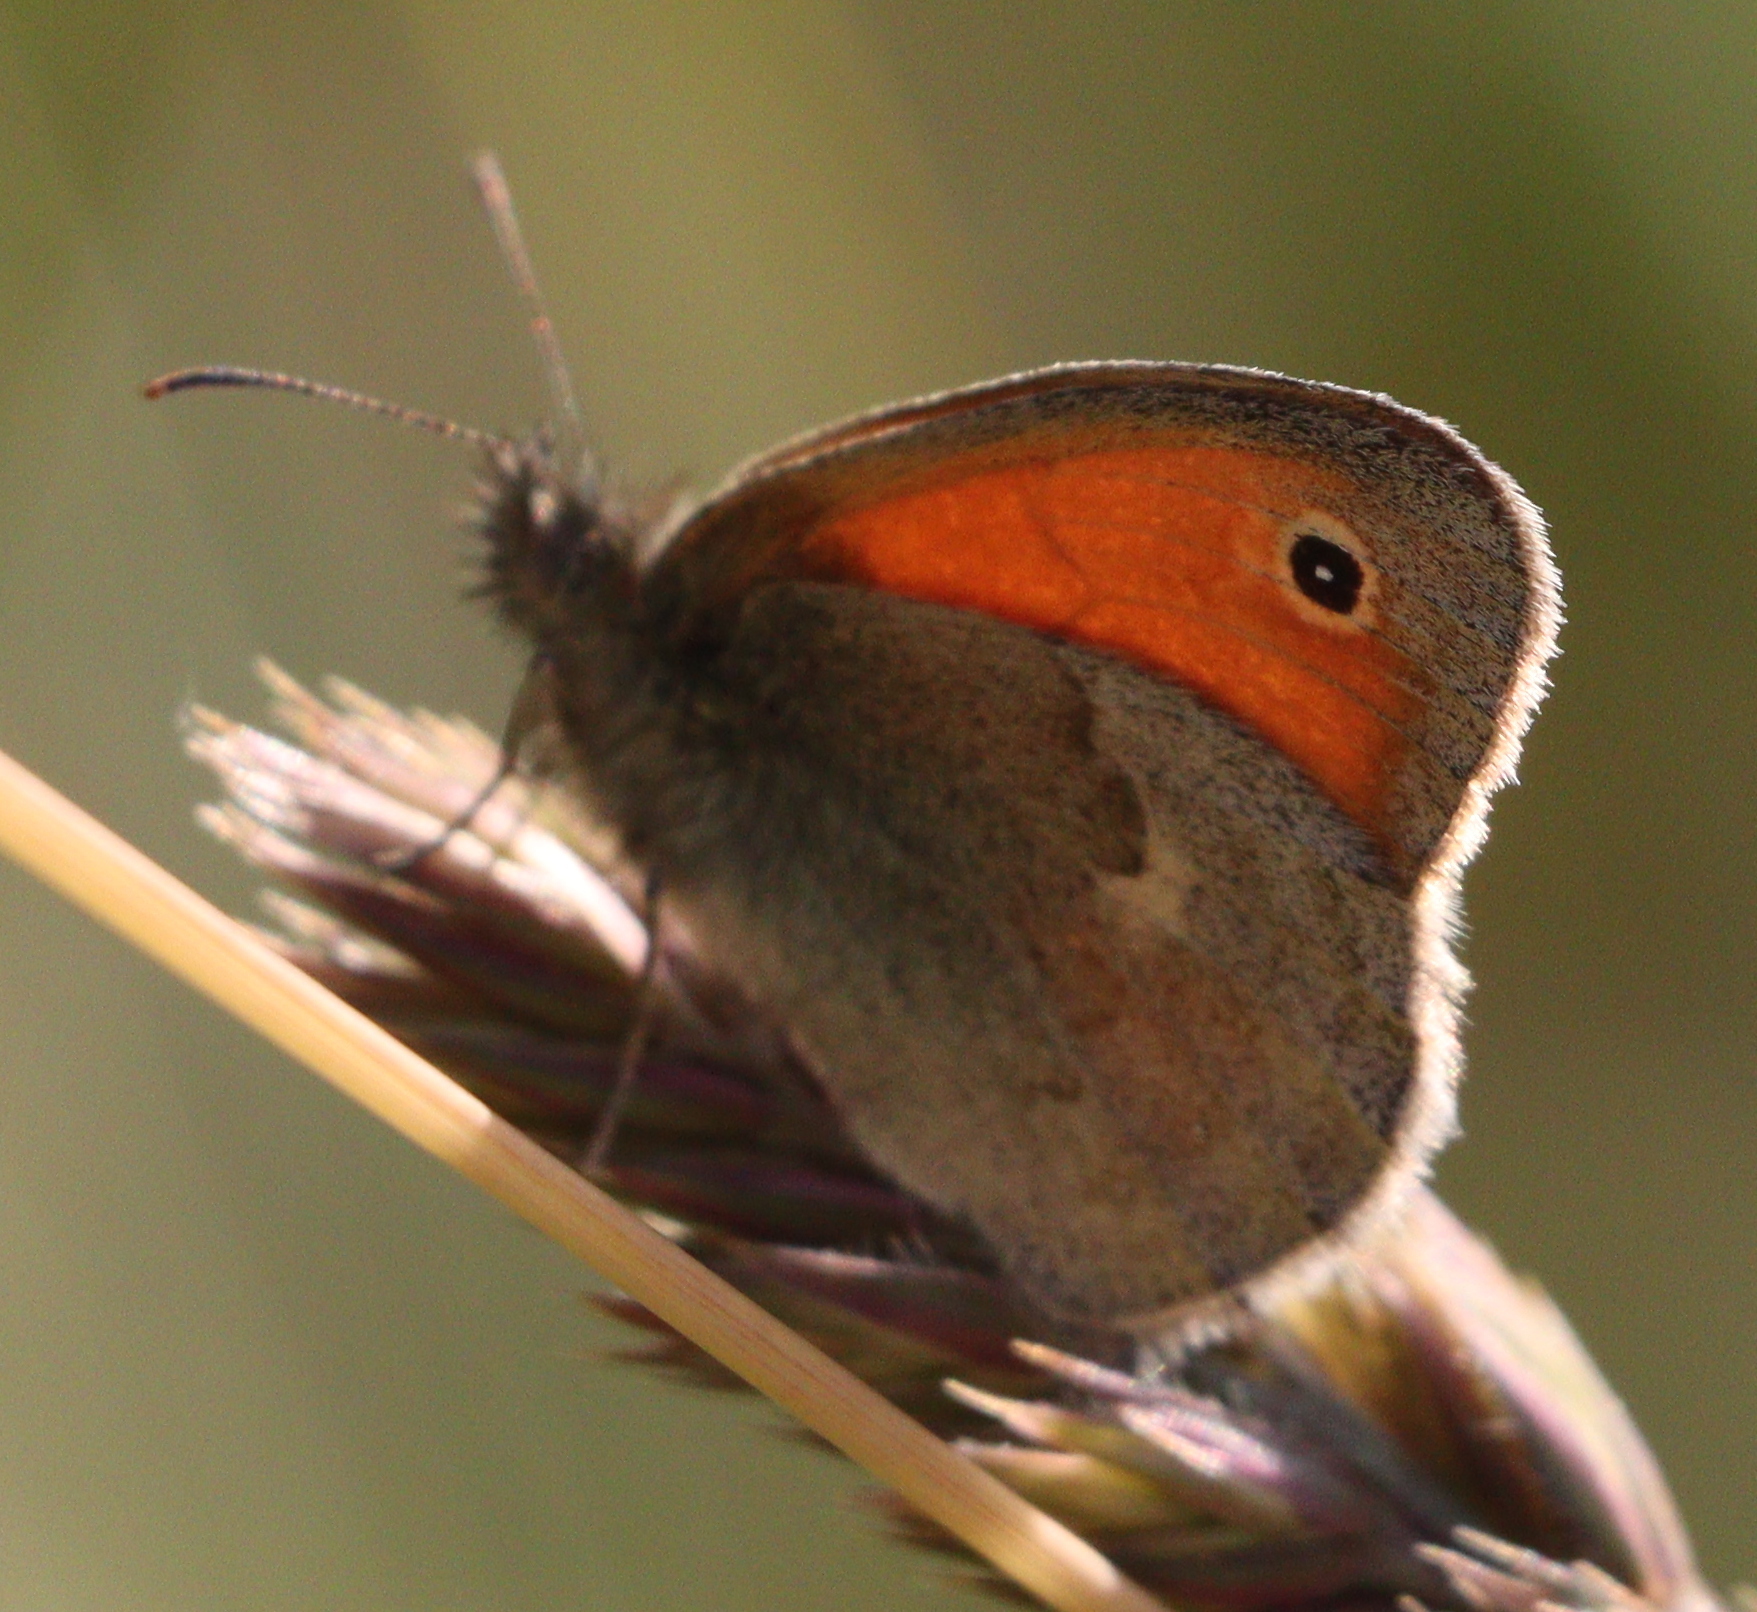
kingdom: Animalia
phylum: Arthropoda
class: Insecta
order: Lepidoptera
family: Nymphalidae
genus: Coenonympha
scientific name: Coenonympha pamphilus
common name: Small heath
